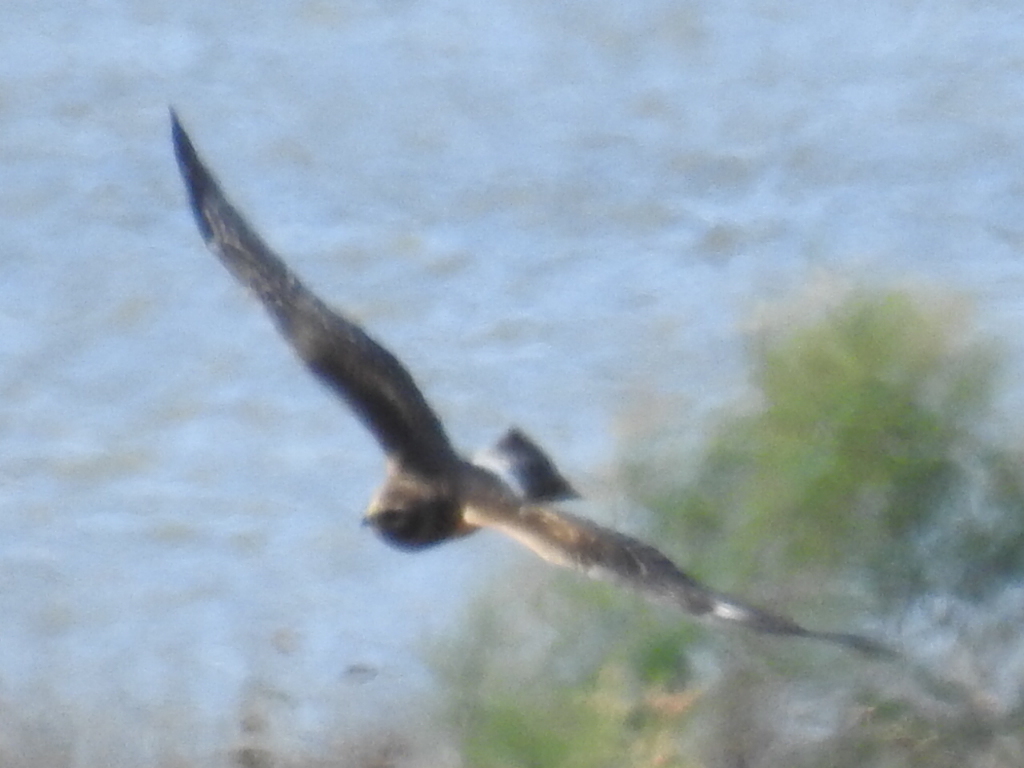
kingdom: Animalia
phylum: Chordata
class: Aves
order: Accipitriformes
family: Accipitridae
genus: Circus
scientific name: Circus cyaneus
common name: Hen harrier
